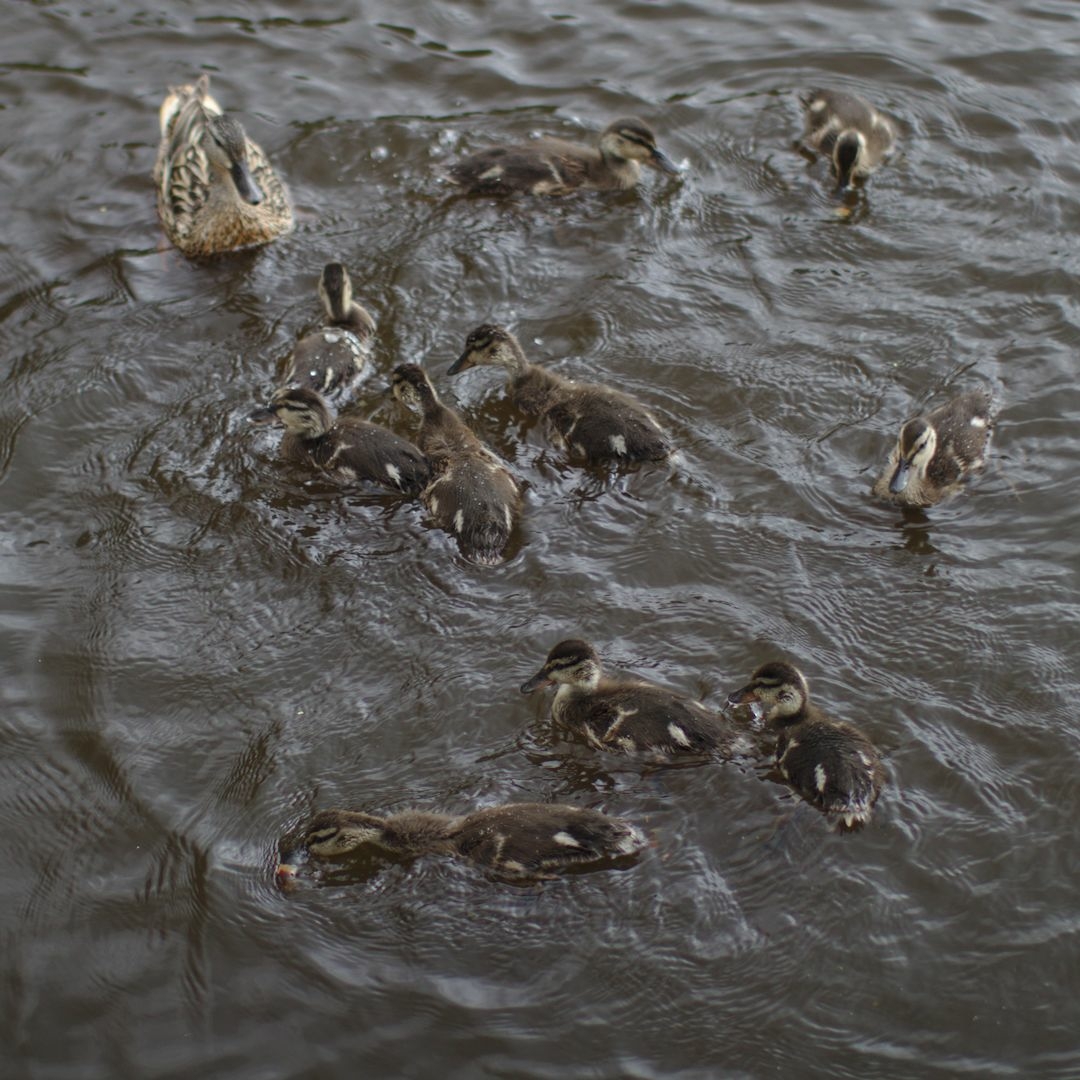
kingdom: Animalia
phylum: Chordata
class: Aves
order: Anseriformes
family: Anatidae
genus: Anas
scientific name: Anas platyrhynchos
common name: Mallard
